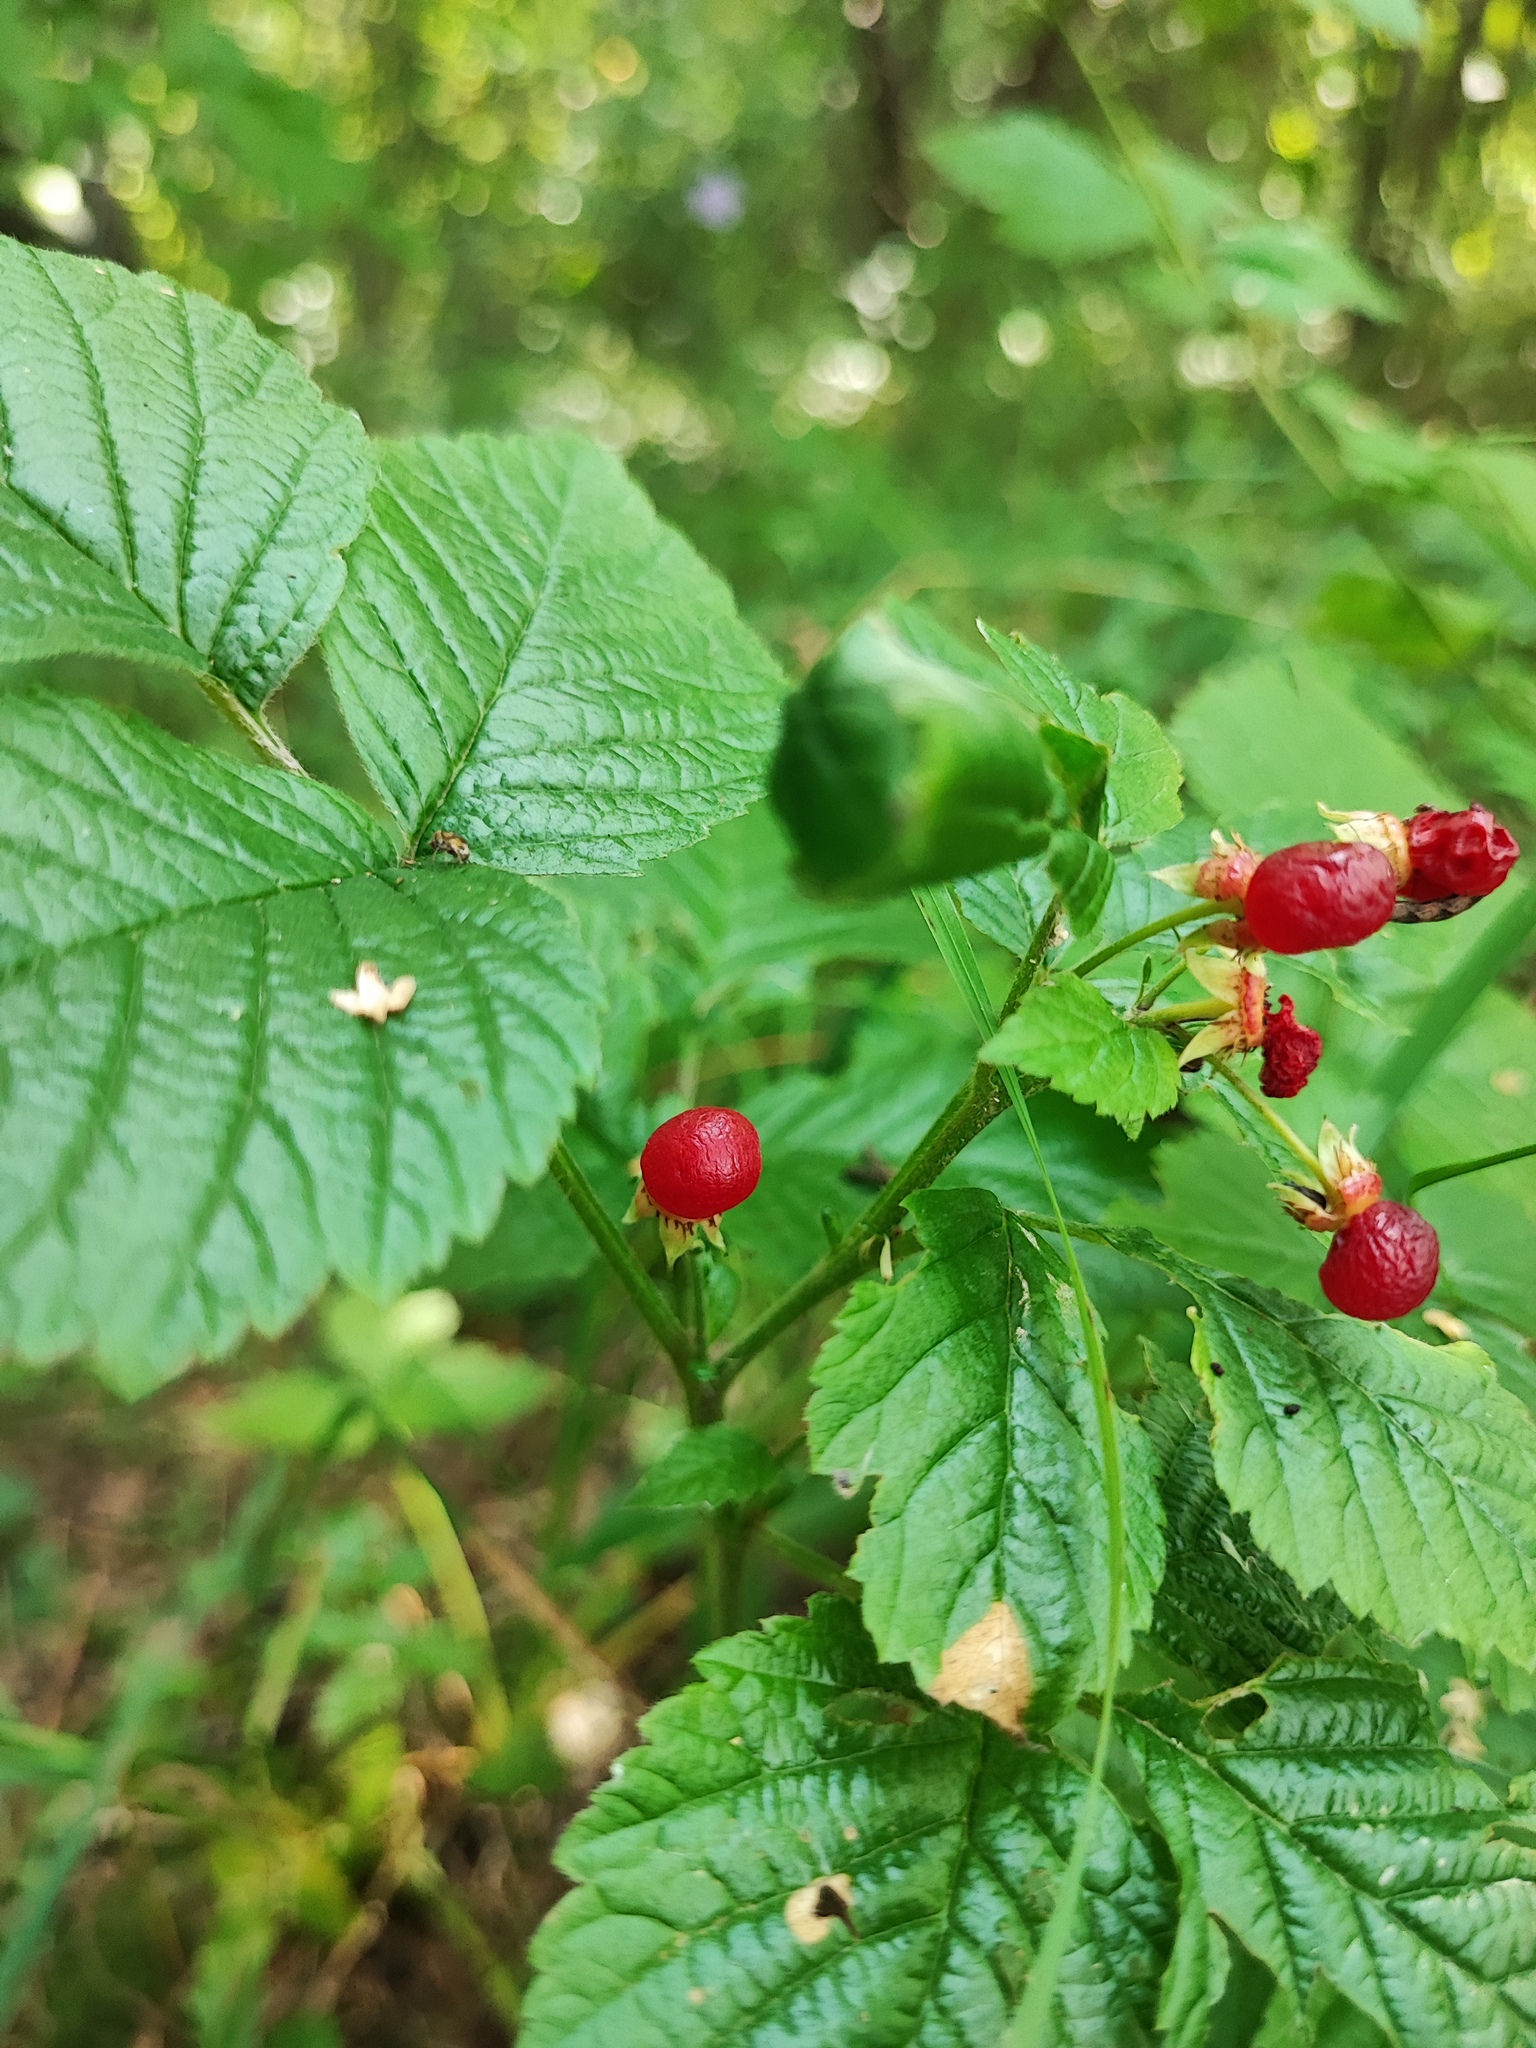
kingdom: Plantae
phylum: Tracheophyta
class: Magnoliopsida
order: Rosales
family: Rosaceae
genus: Rubus
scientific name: Rubus saxatilis
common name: Stone bramble
